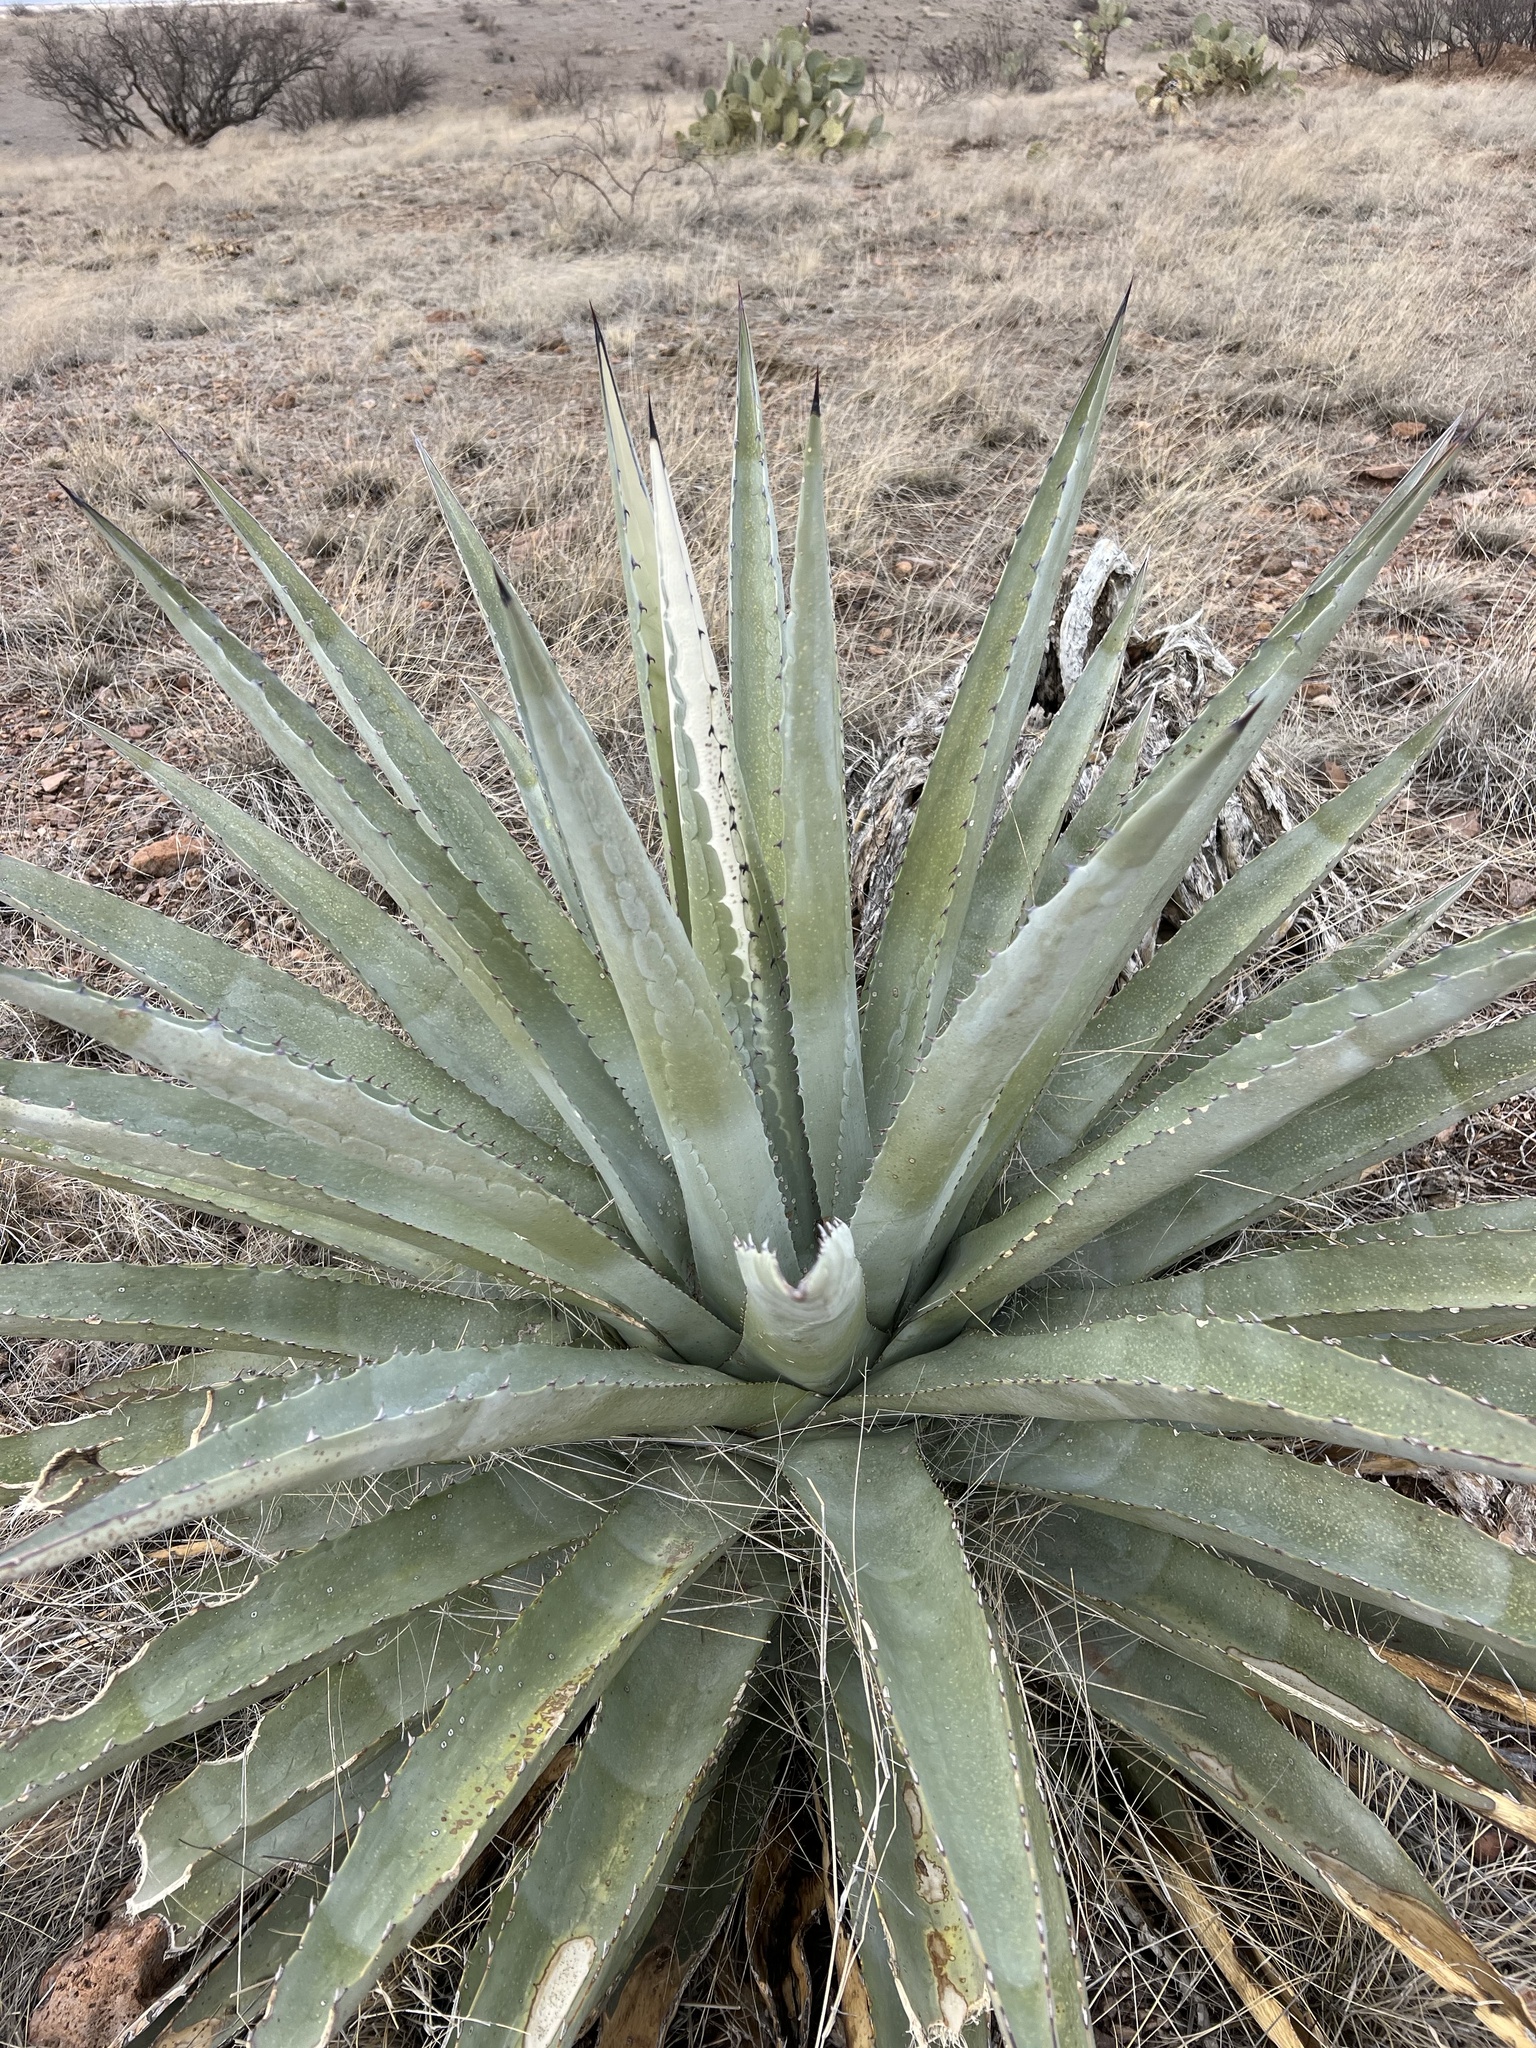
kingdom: Plantae
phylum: Tracheophyta
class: Liliopsida
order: Asparagales
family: Asparagaceae
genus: Agave
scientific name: Agave palmeri
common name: Palmer agave
